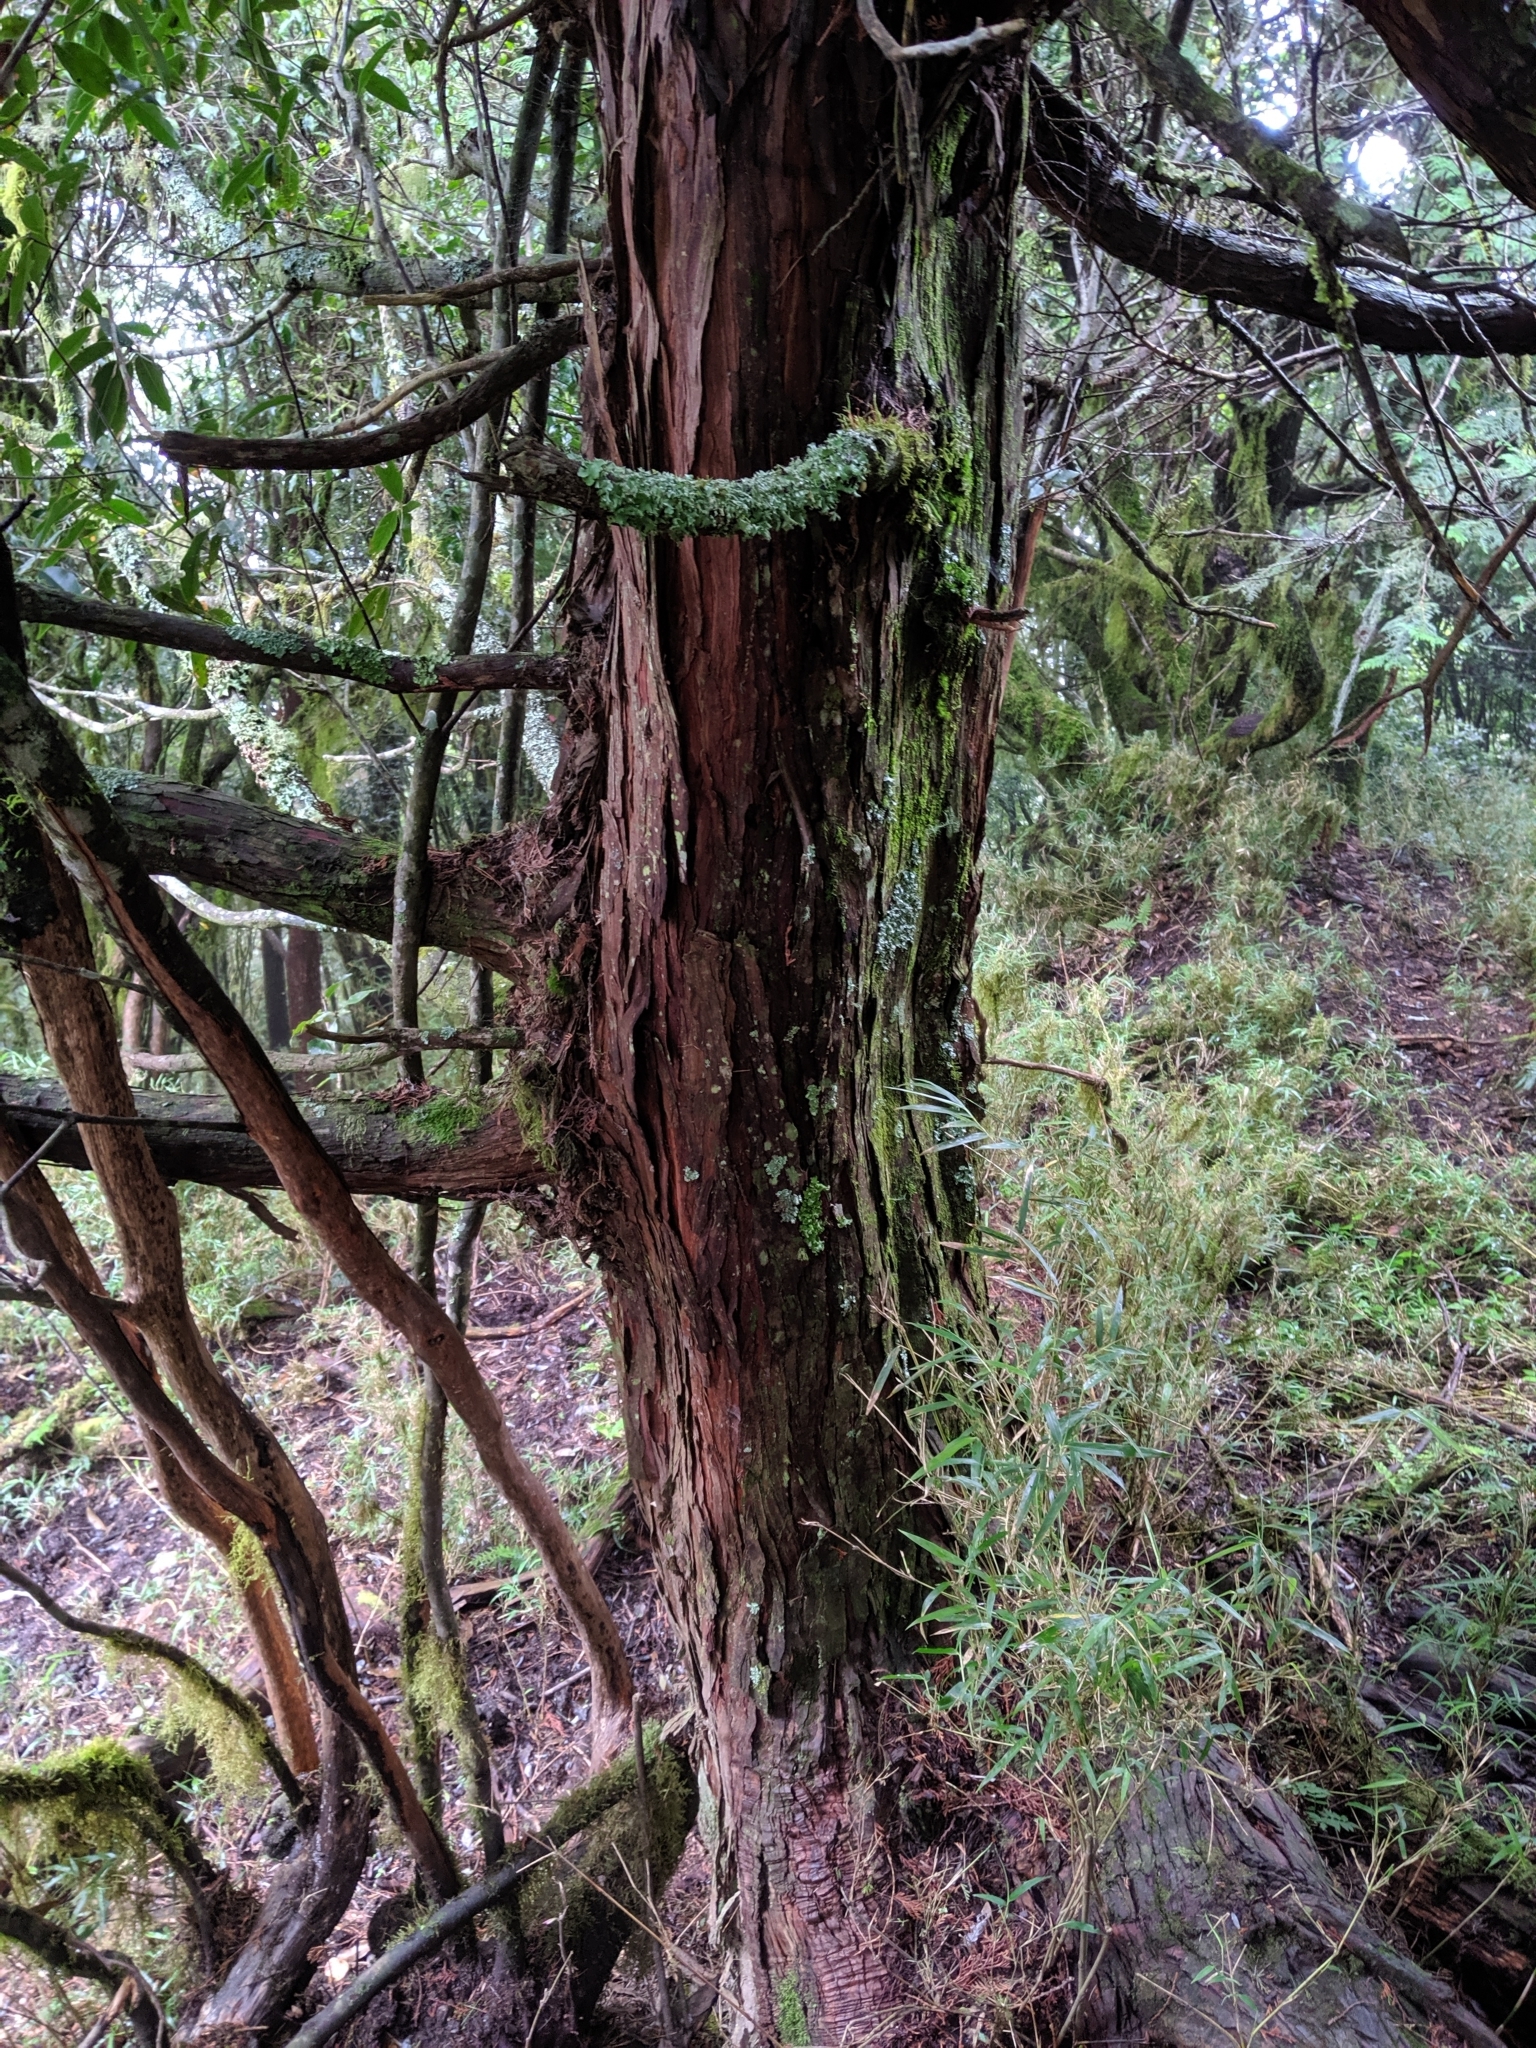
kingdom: Plantae
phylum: Tracheophyta
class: Pinopsida
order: Pinales
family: Cupressaceae
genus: Chamaecyparis
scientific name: Chamaecyparis obtusa
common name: Hinoki false cypress
